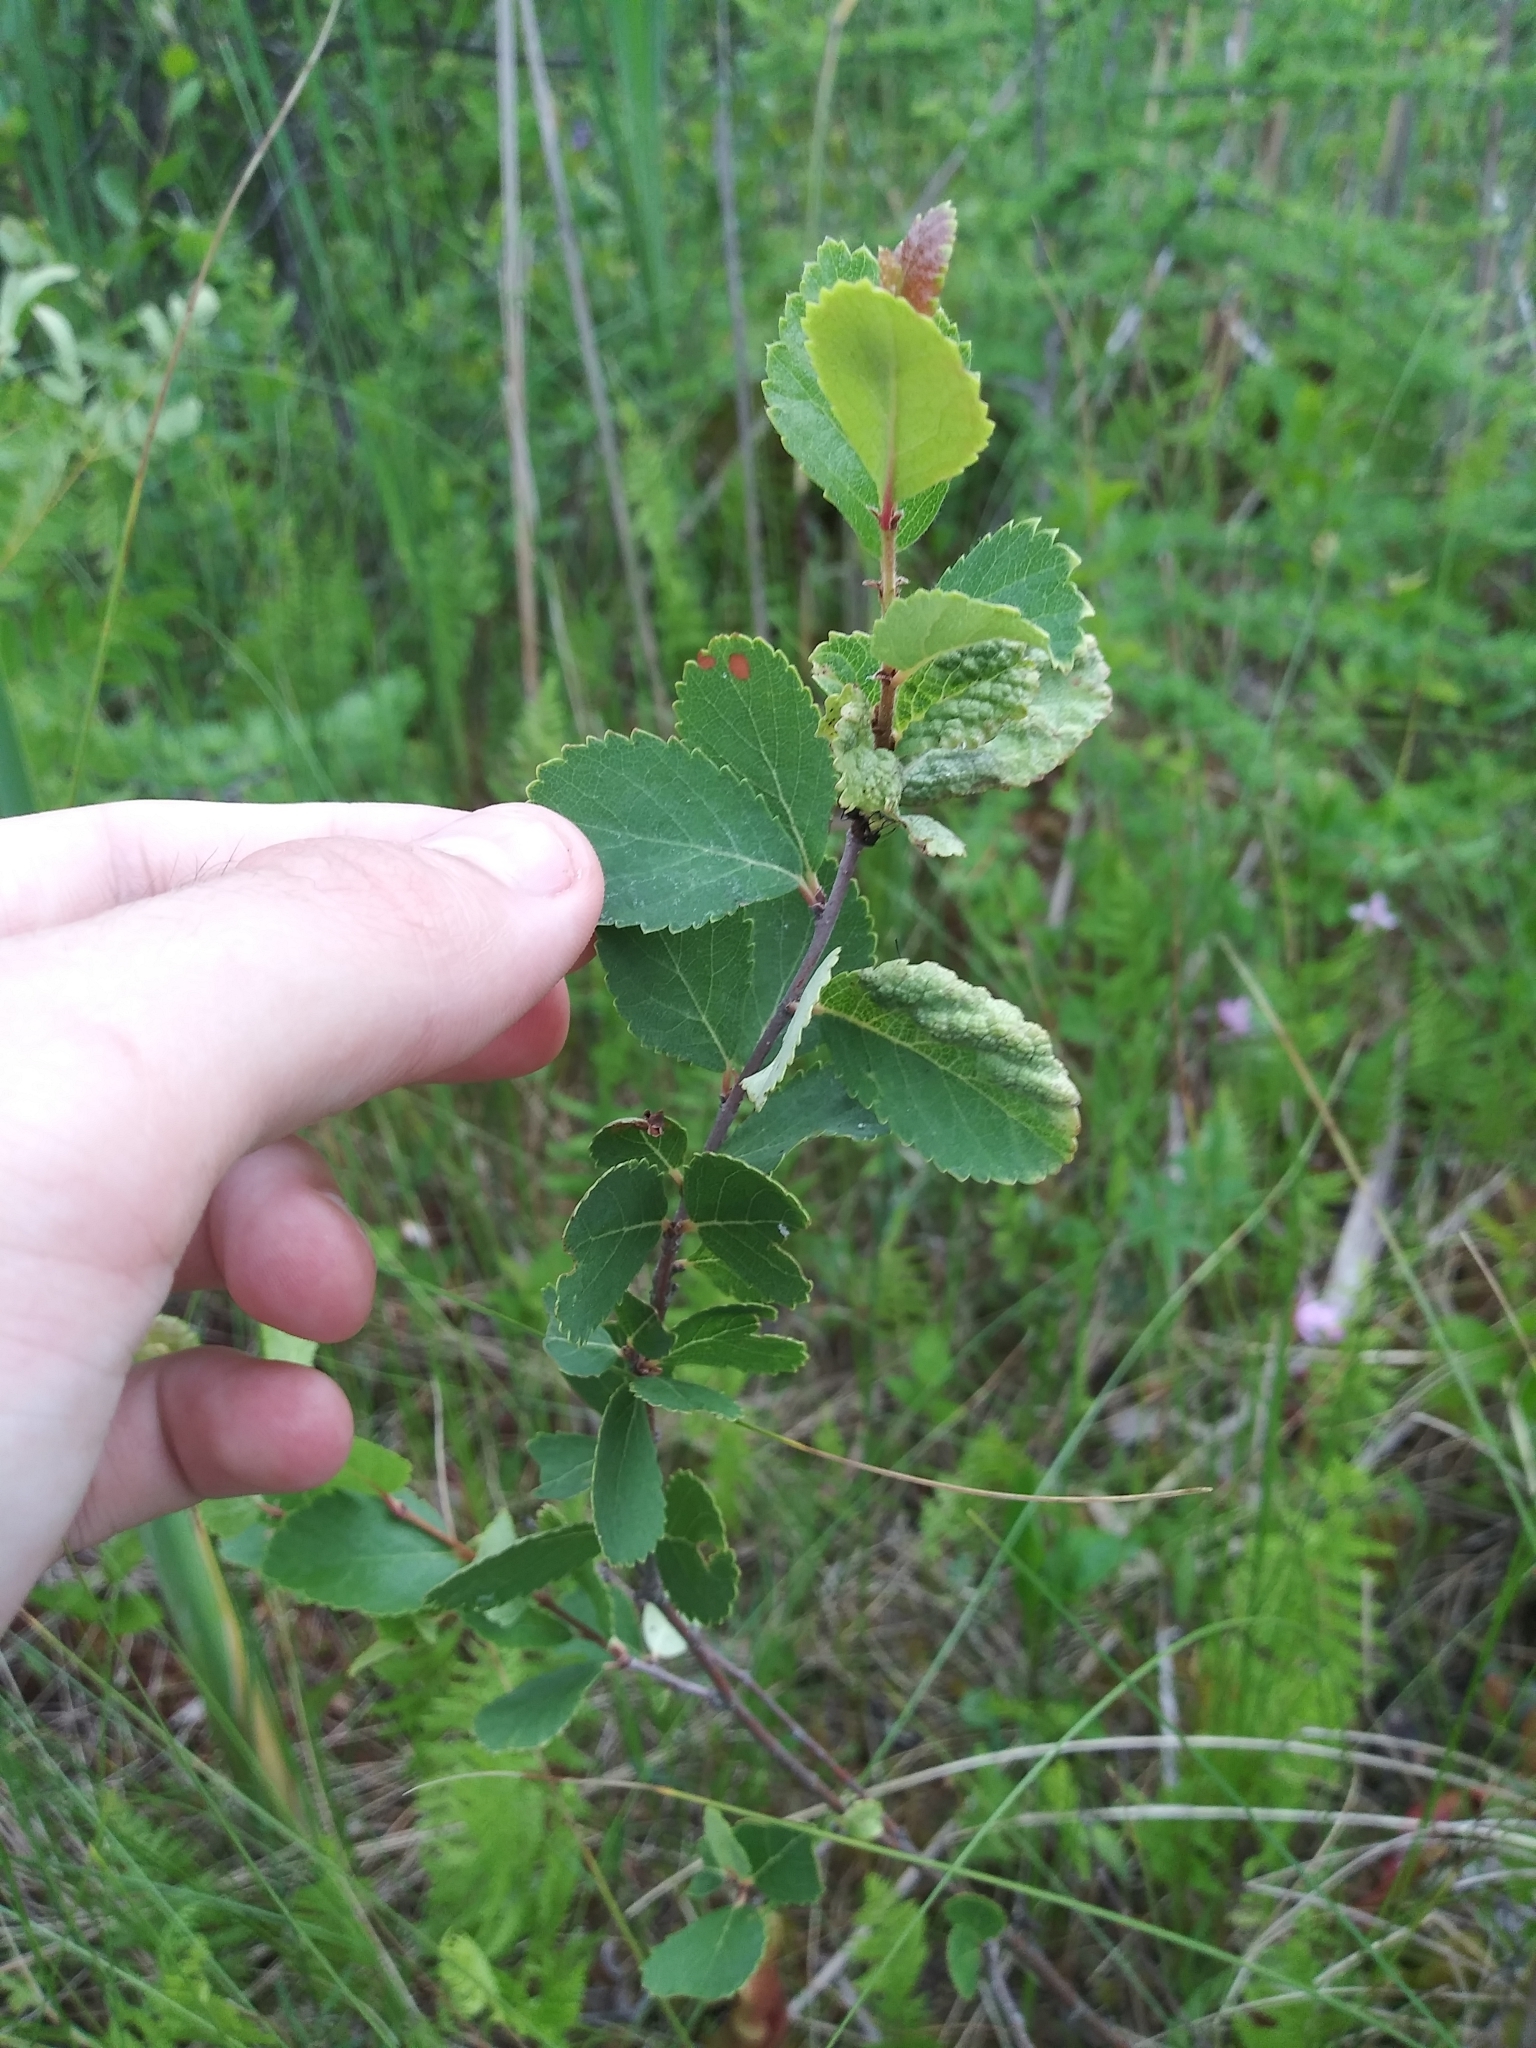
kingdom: Plantae
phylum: Tracheophyta
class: Magnoliopsida
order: Fagales
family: Betulaceae
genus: Betula
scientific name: Betula pumila
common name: Bog birch
